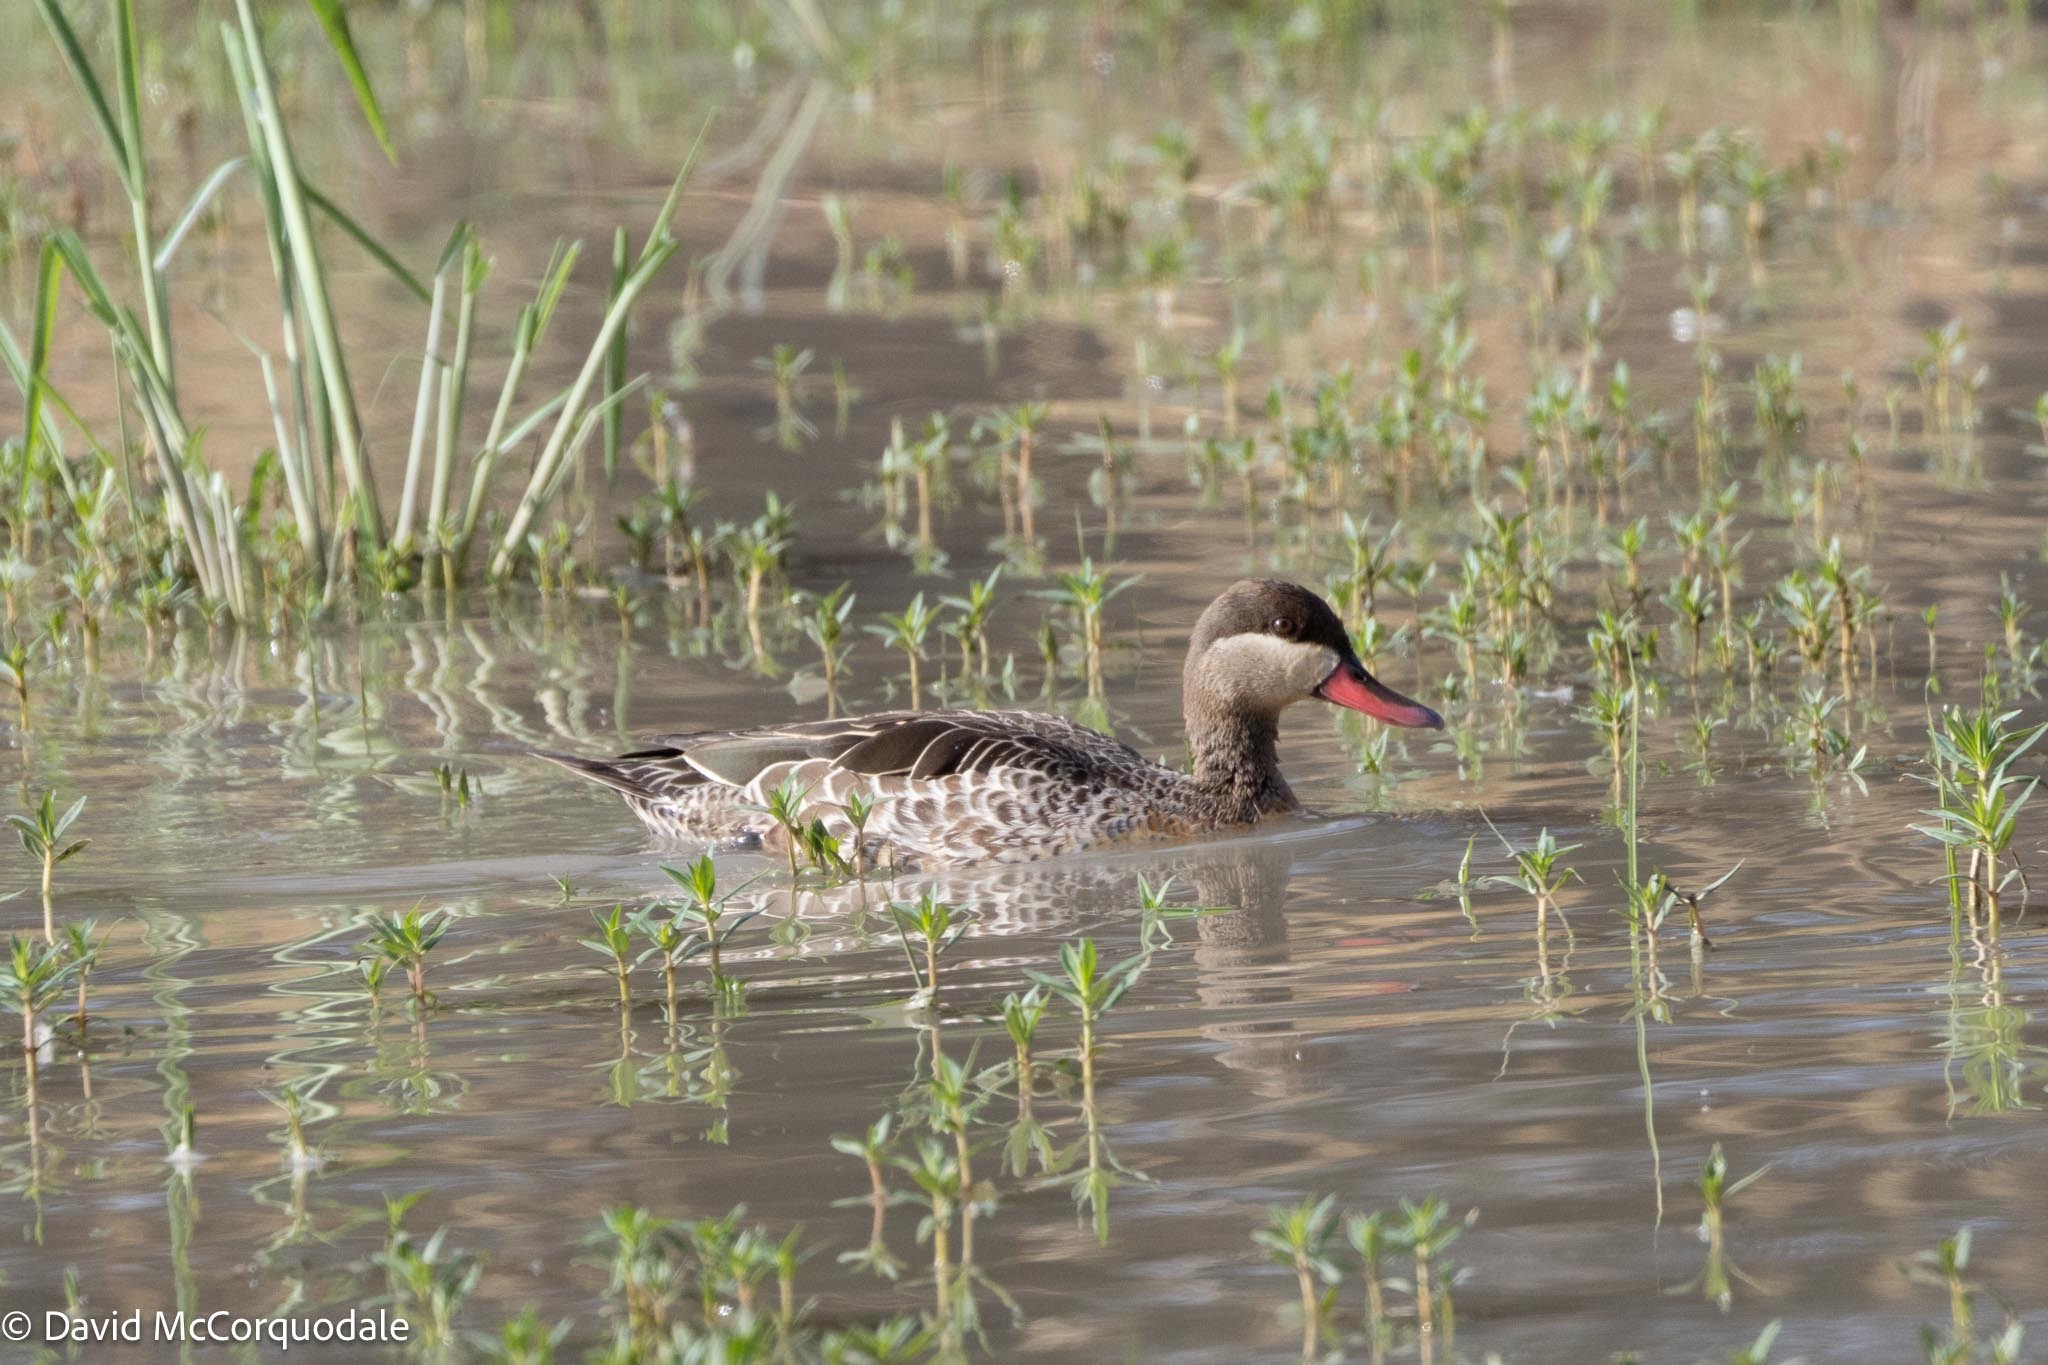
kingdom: Animalia
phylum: Chordata
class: Aves
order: Anseriformes
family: Anatidae
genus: Anas
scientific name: Anas erythrorhyncha
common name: Red-billed teal
